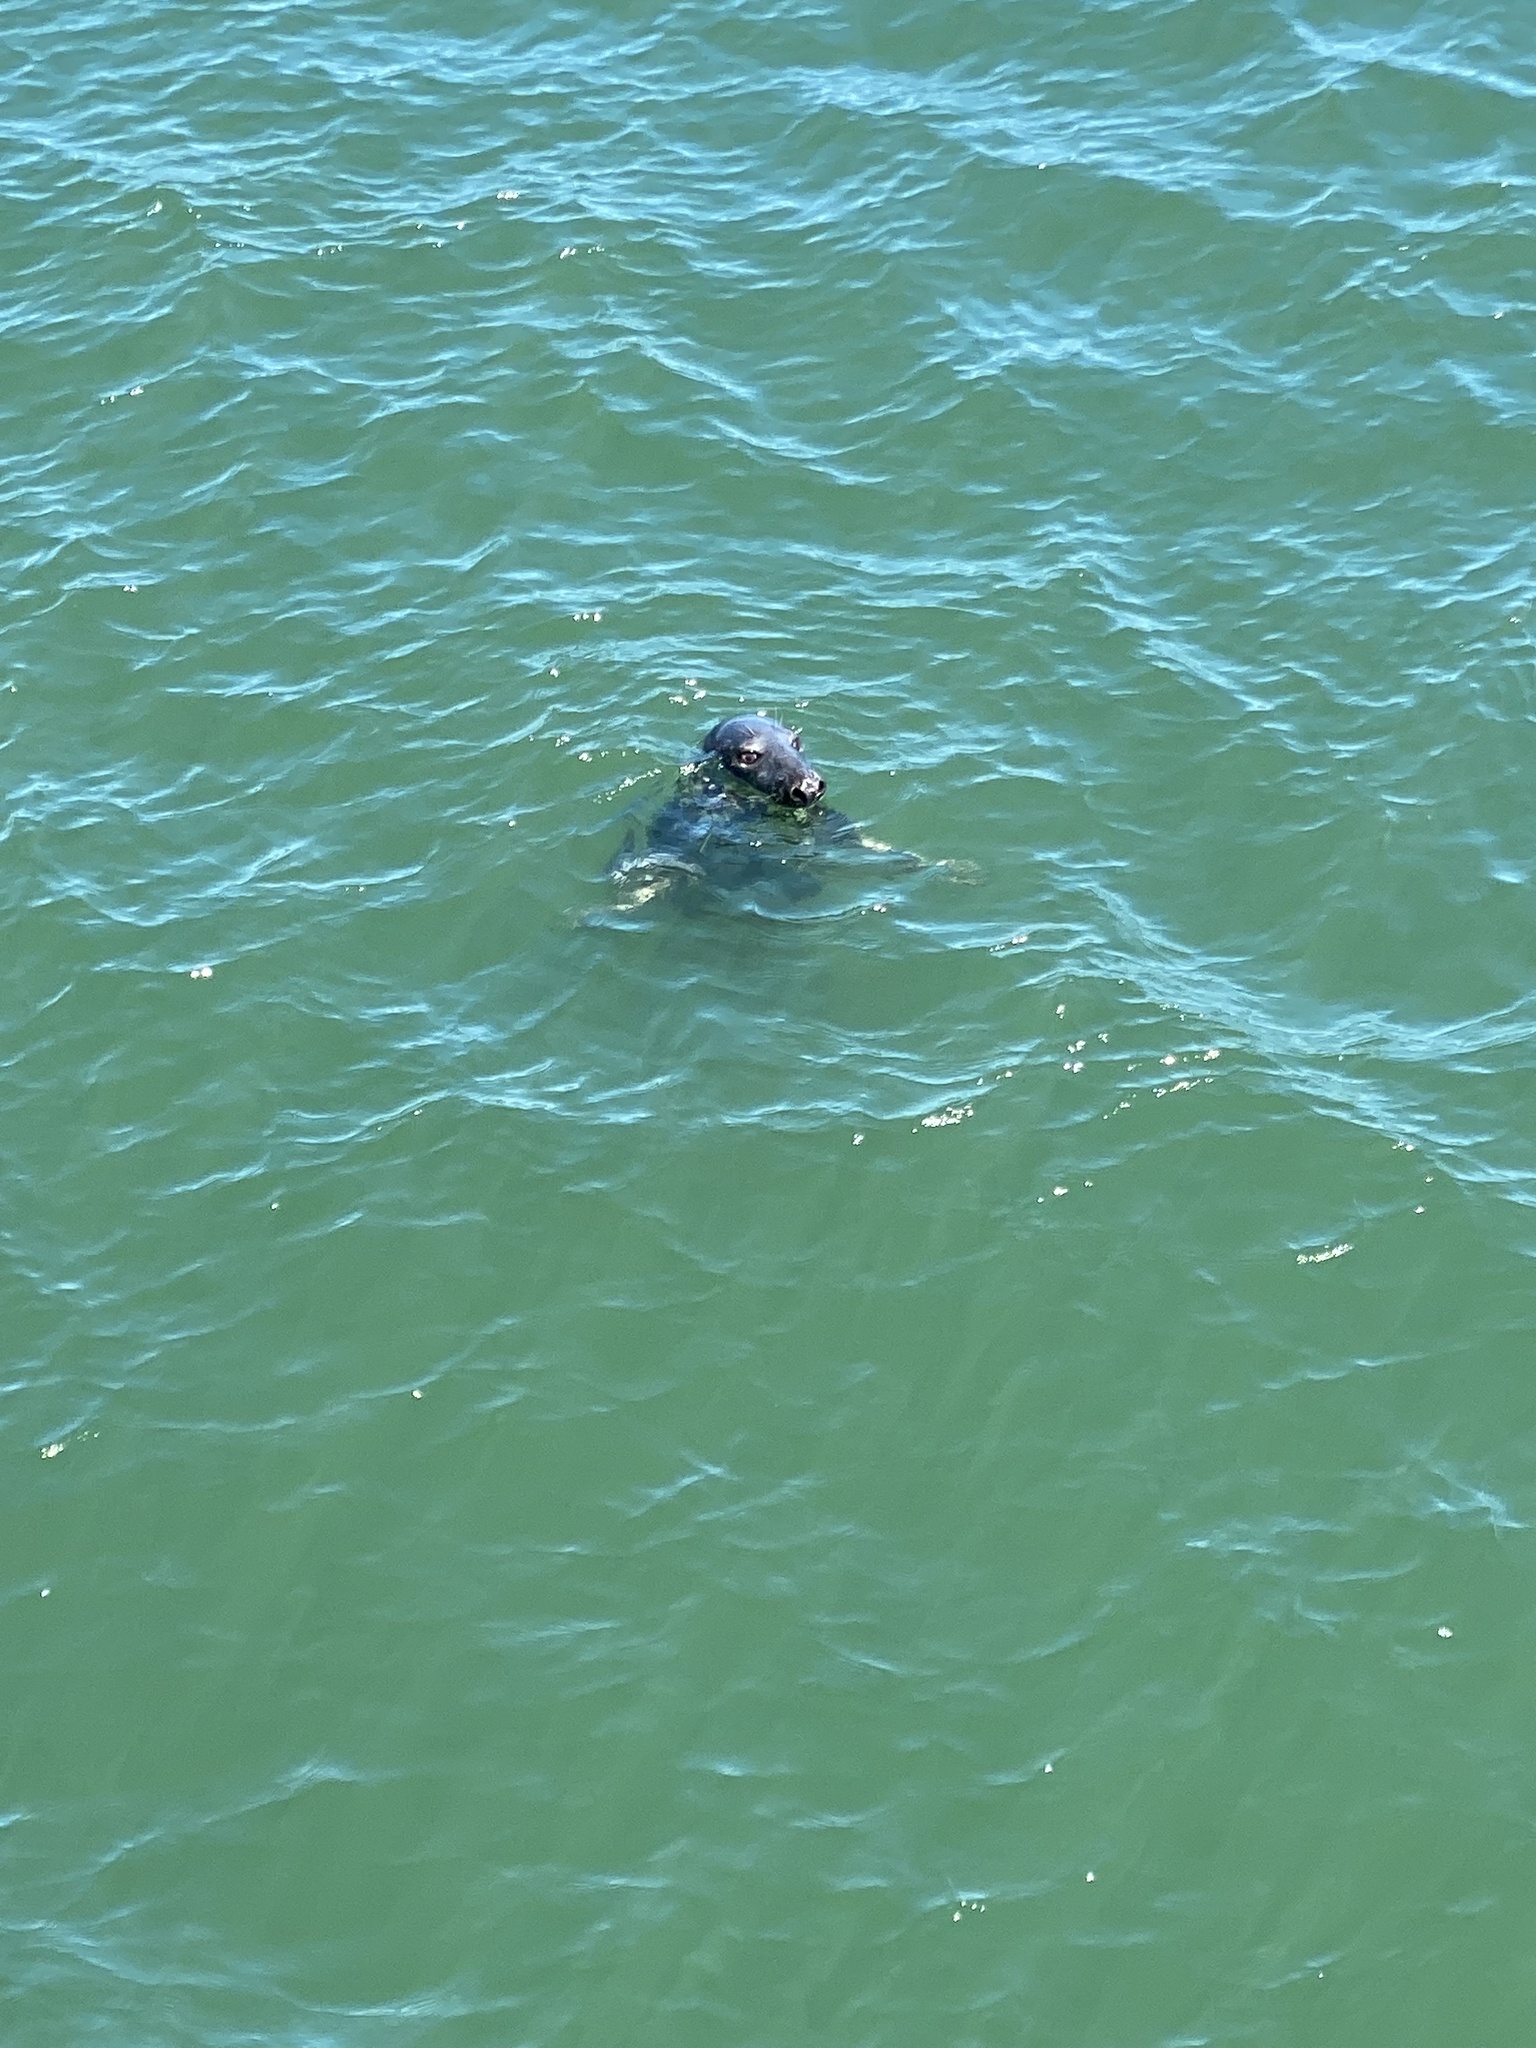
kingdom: Animalia
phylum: Chordata
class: Mammalia
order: Carnivora
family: Phocidae
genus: Halichoerus
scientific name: Halichoerus grypus
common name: Grey seal
